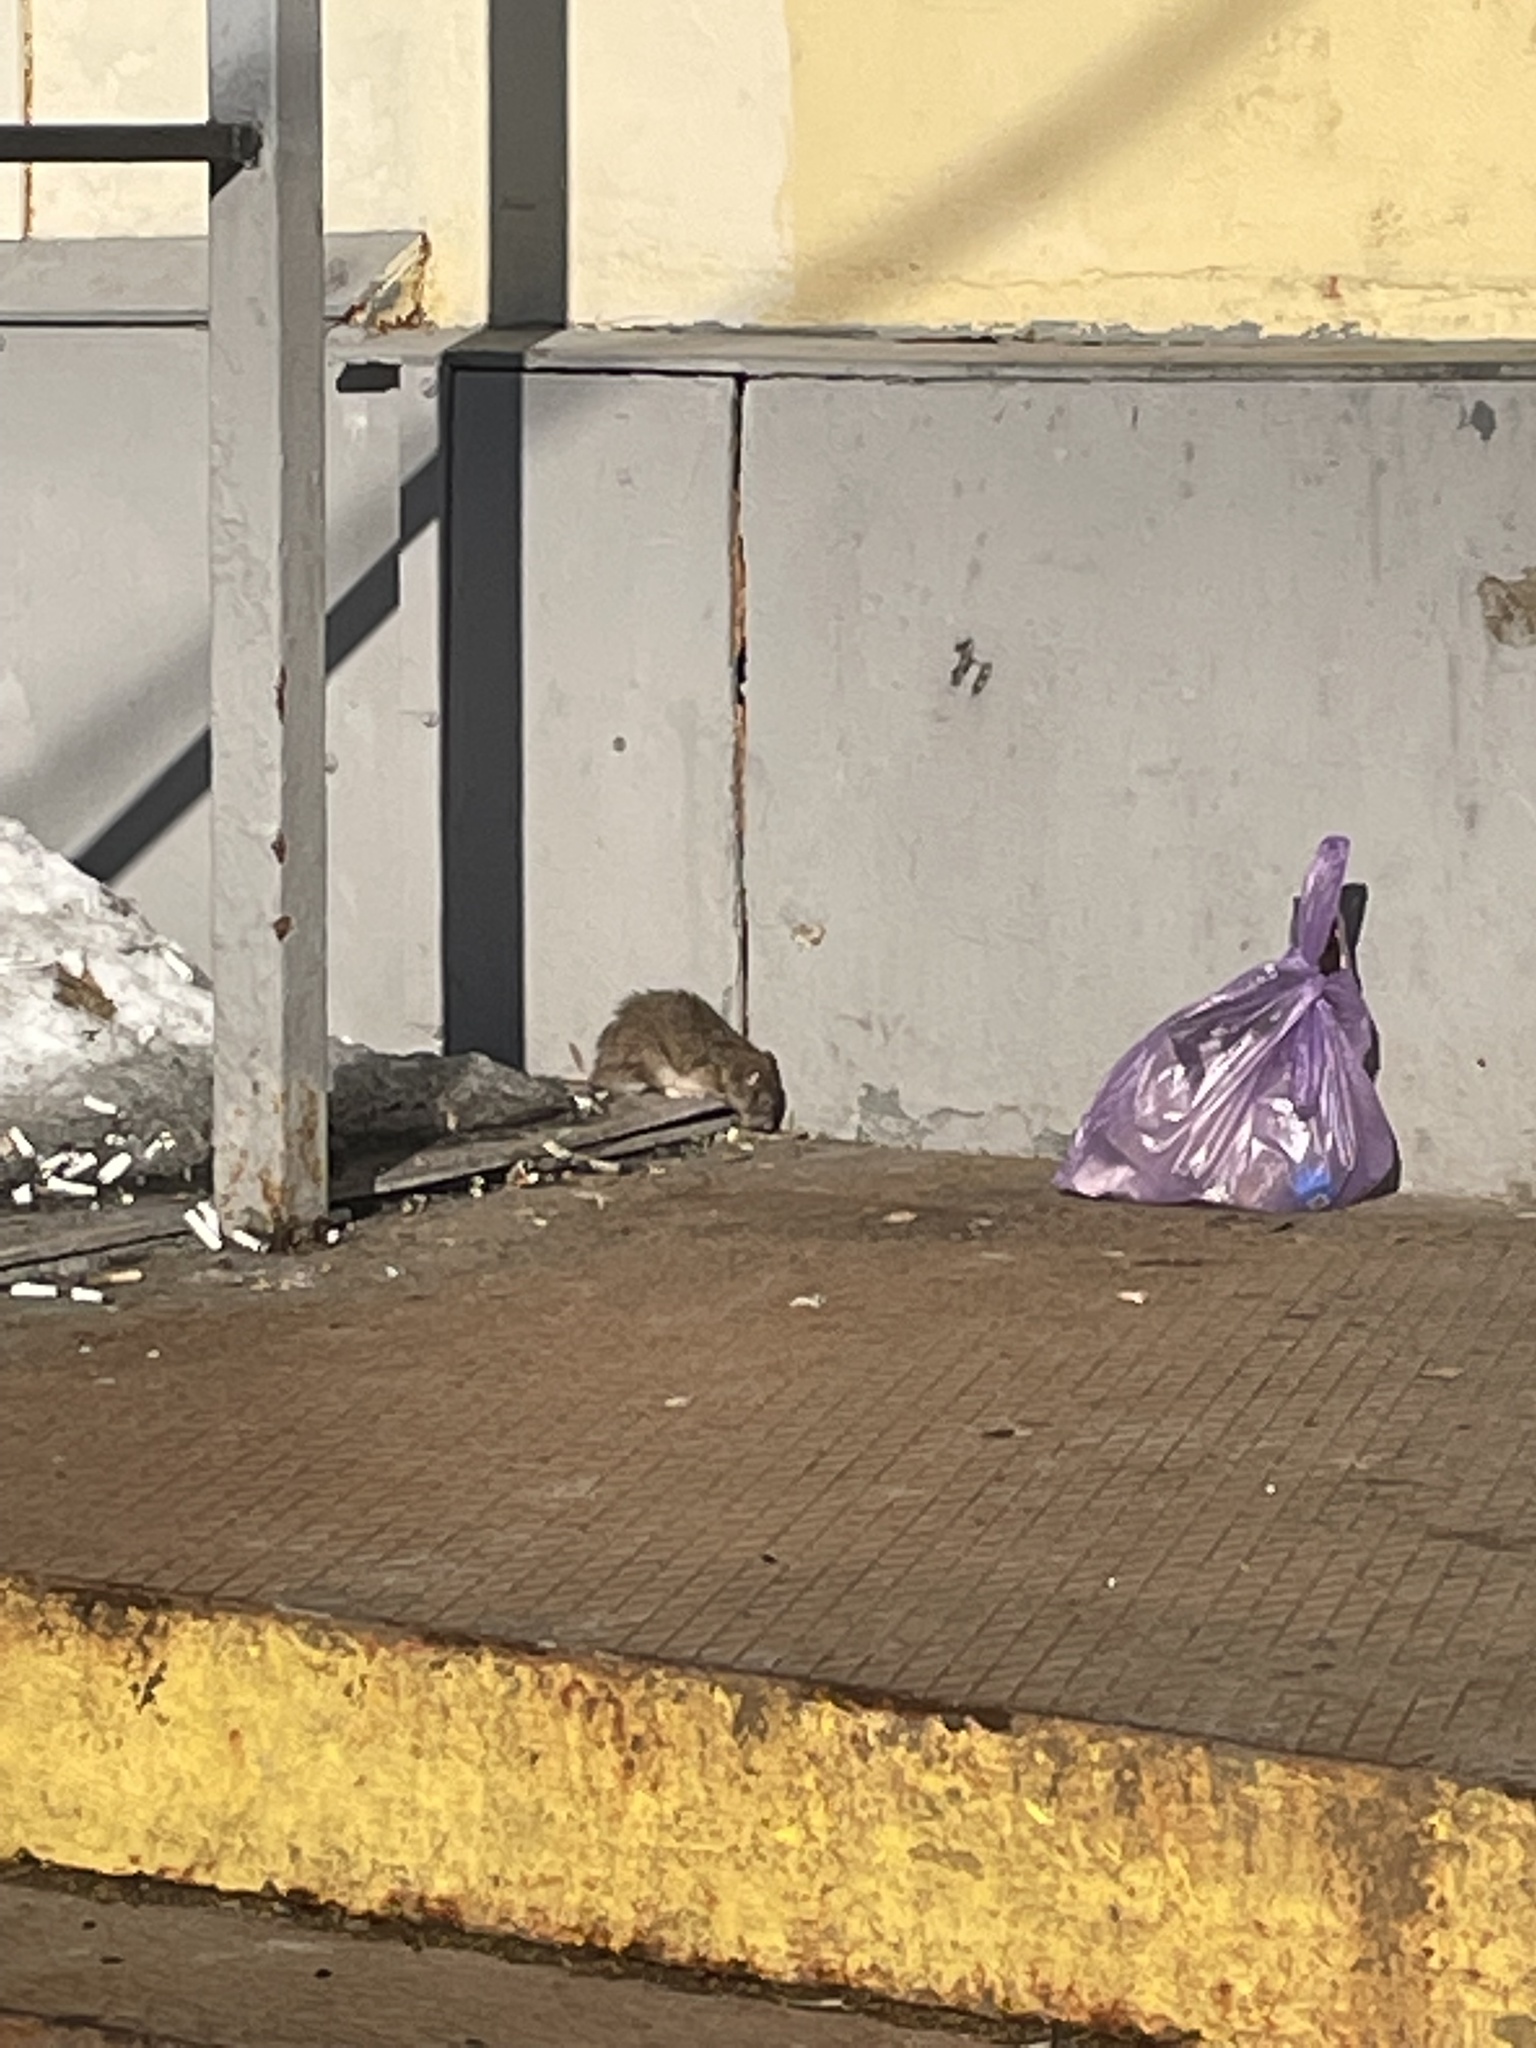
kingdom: Animalia
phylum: Chordata
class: Mammalia
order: Rodentia
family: Muridae
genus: Rattus
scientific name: Rattus norvegicus
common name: Brown rat
